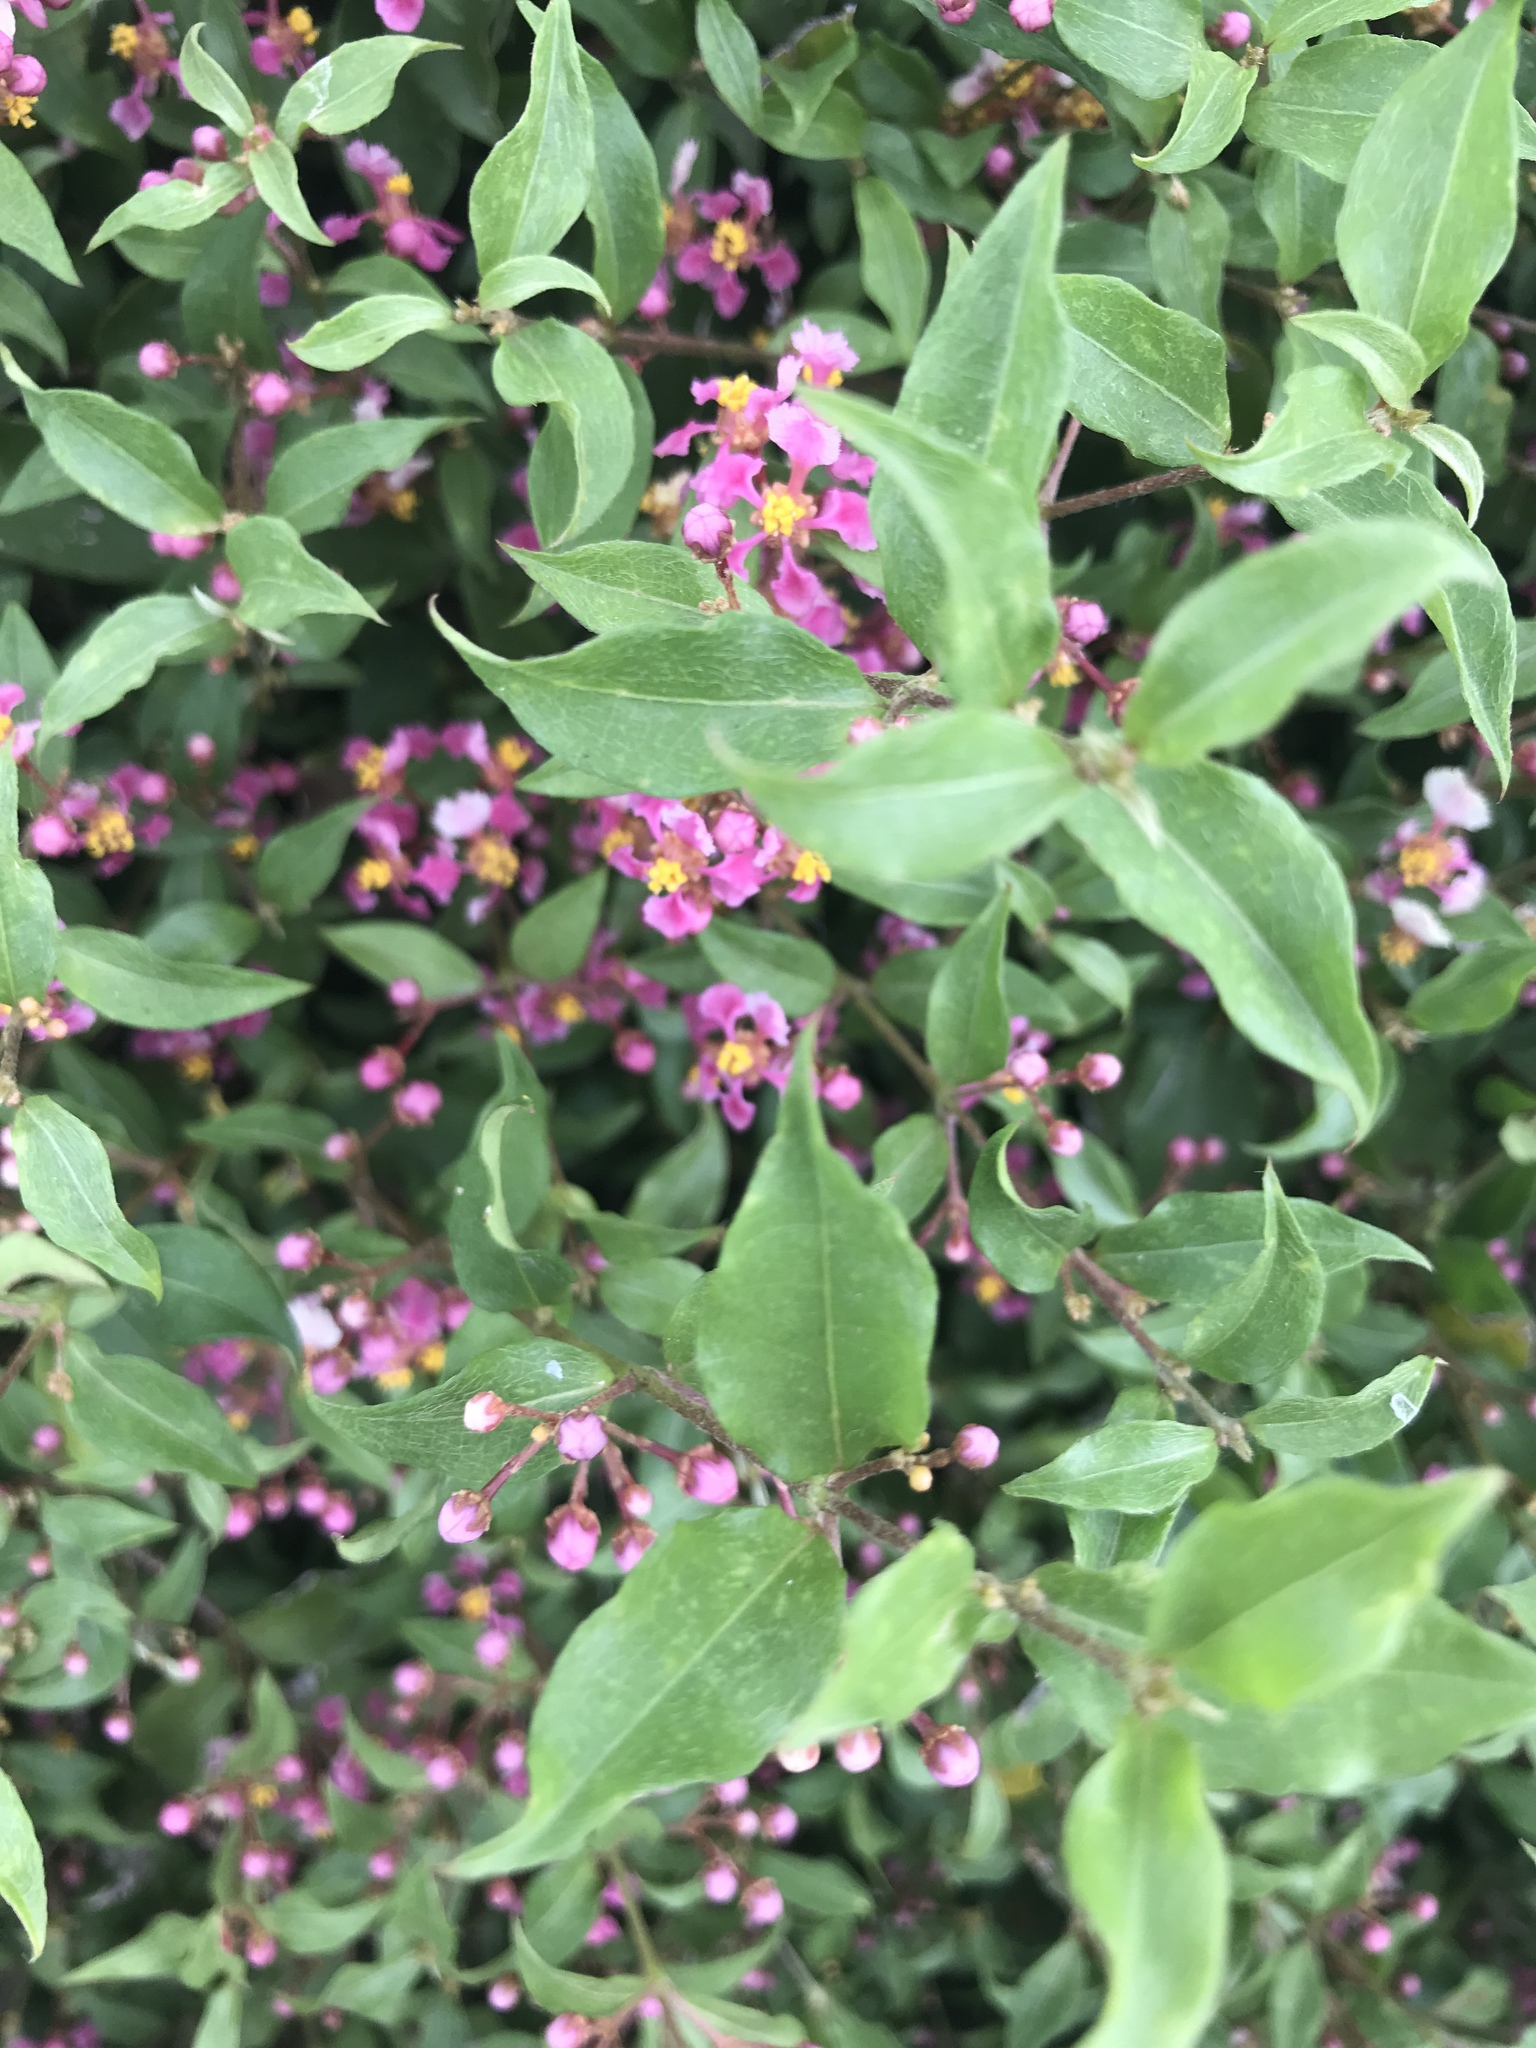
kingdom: Plantae
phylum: Tracheophyta
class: Magnoliopsida
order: Malpighiales
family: Malpighiaceae
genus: Malpighia
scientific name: Malpighia glabra
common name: Barbados cherry
